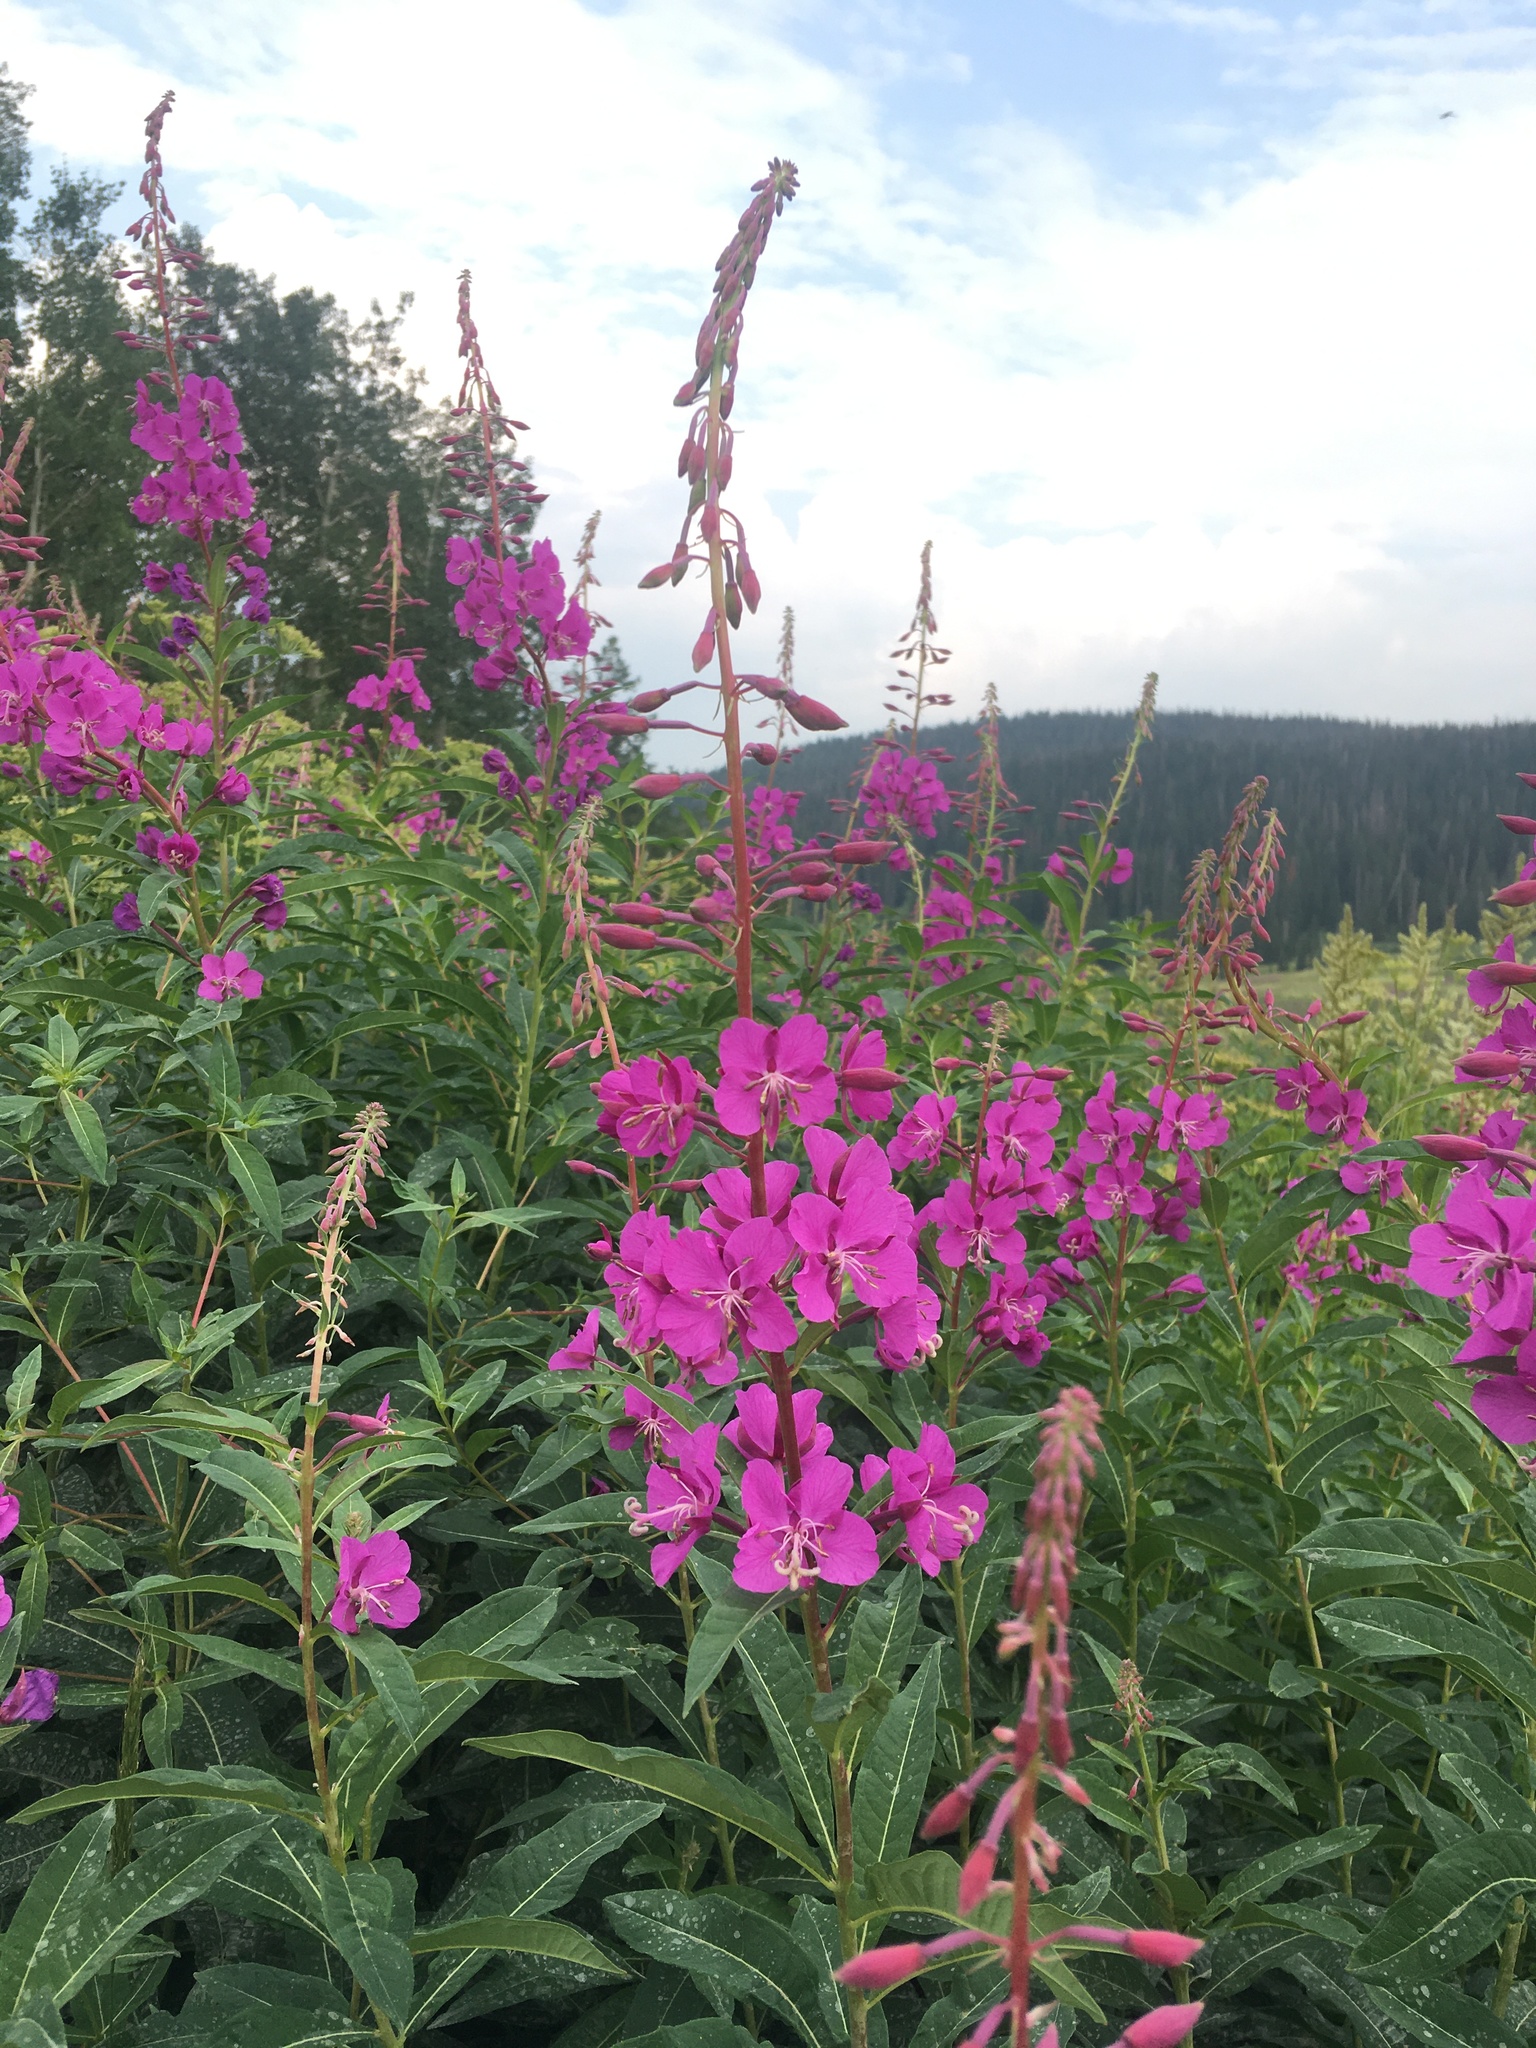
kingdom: Plantae
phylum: Tracheophyta
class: Magnoliopsida
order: Myrtales
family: Onagraceae
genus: Chamaenerion
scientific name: Chamaenerion angustifolium
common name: Fireweed
